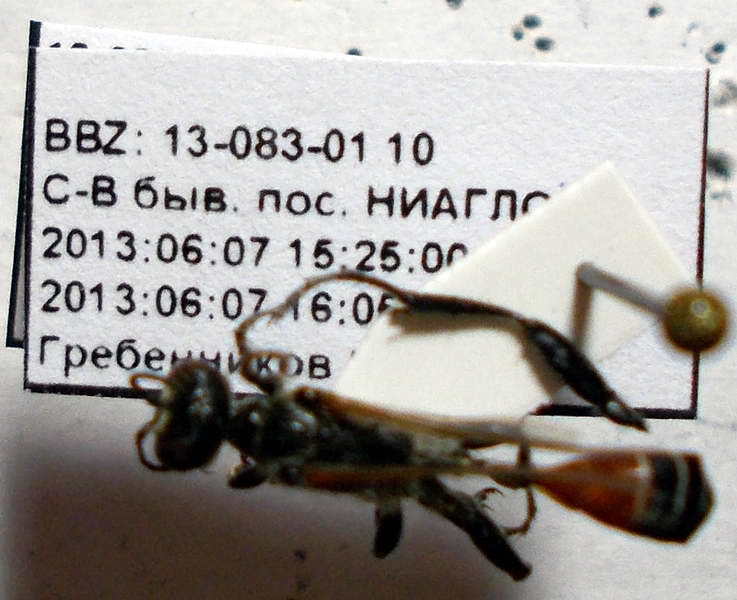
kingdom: Animalia
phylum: Arthropoda
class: Insecta
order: Hymenoptera
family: Sphecidae
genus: Prionyx
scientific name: Prionyx kirbii
